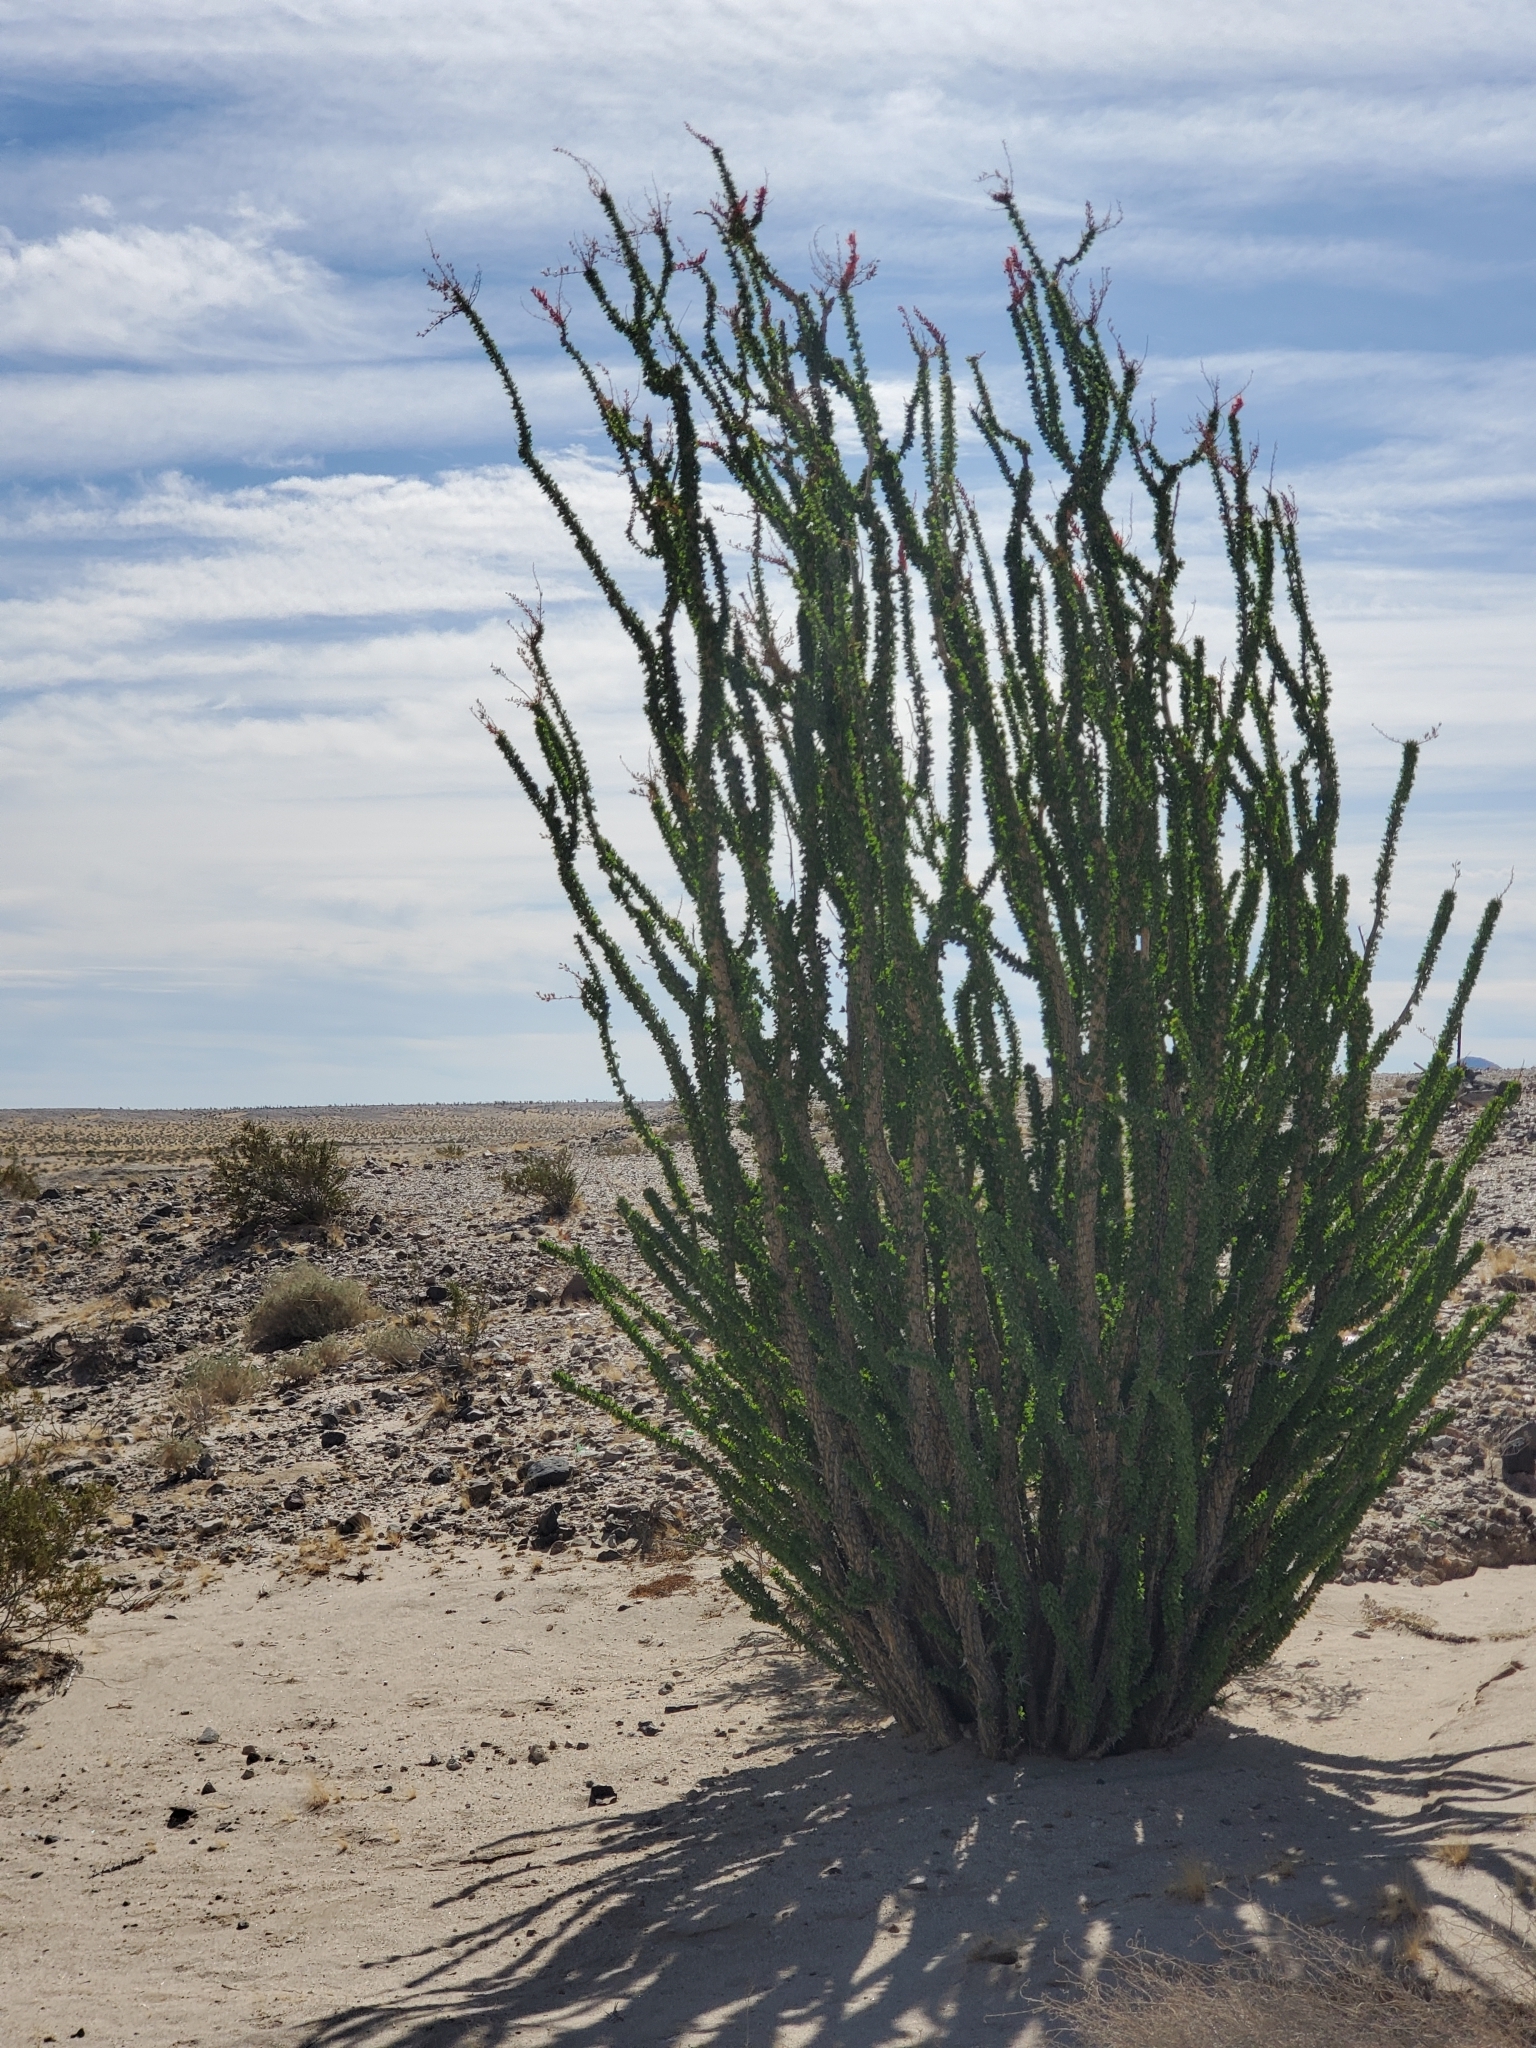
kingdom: Plantae
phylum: Tracheophyta
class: Magnoliopsida
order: Ericales
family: Fouquieriaceae
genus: Fouquieria
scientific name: Fouquieria splendens
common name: Vine-cactus
